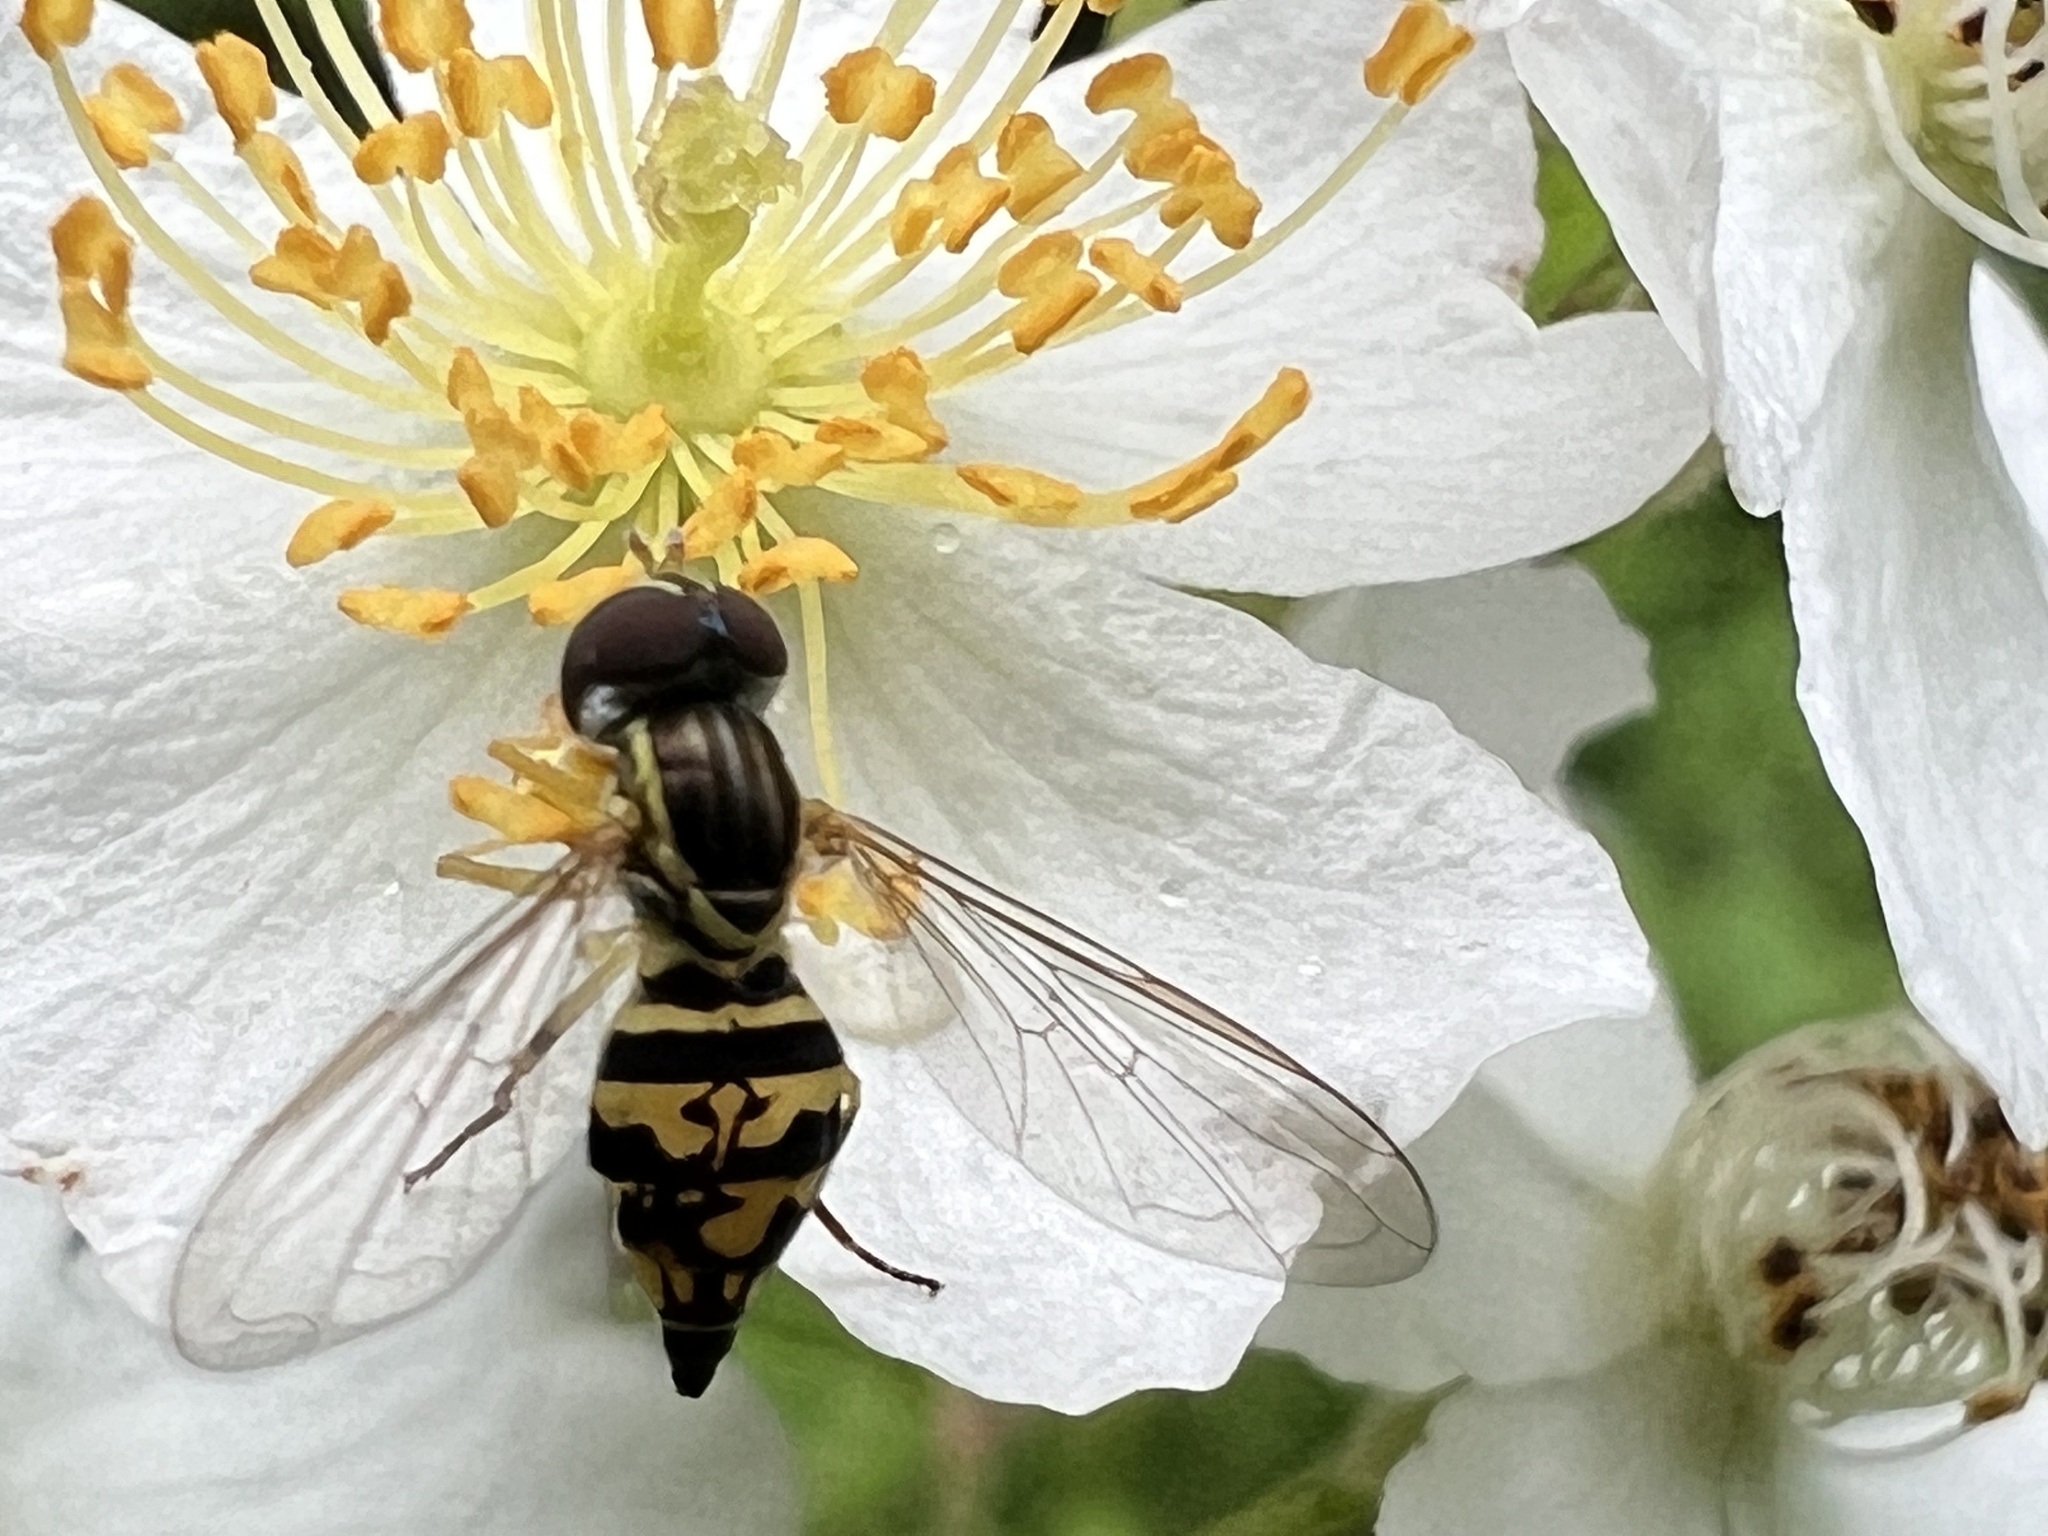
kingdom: Animalia
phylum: Arthropoda
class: Insecta
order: Diptera
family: Syrphidae
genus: Toxomerus
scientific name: Toxomerus geminatus
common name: Eastern calligrapher
